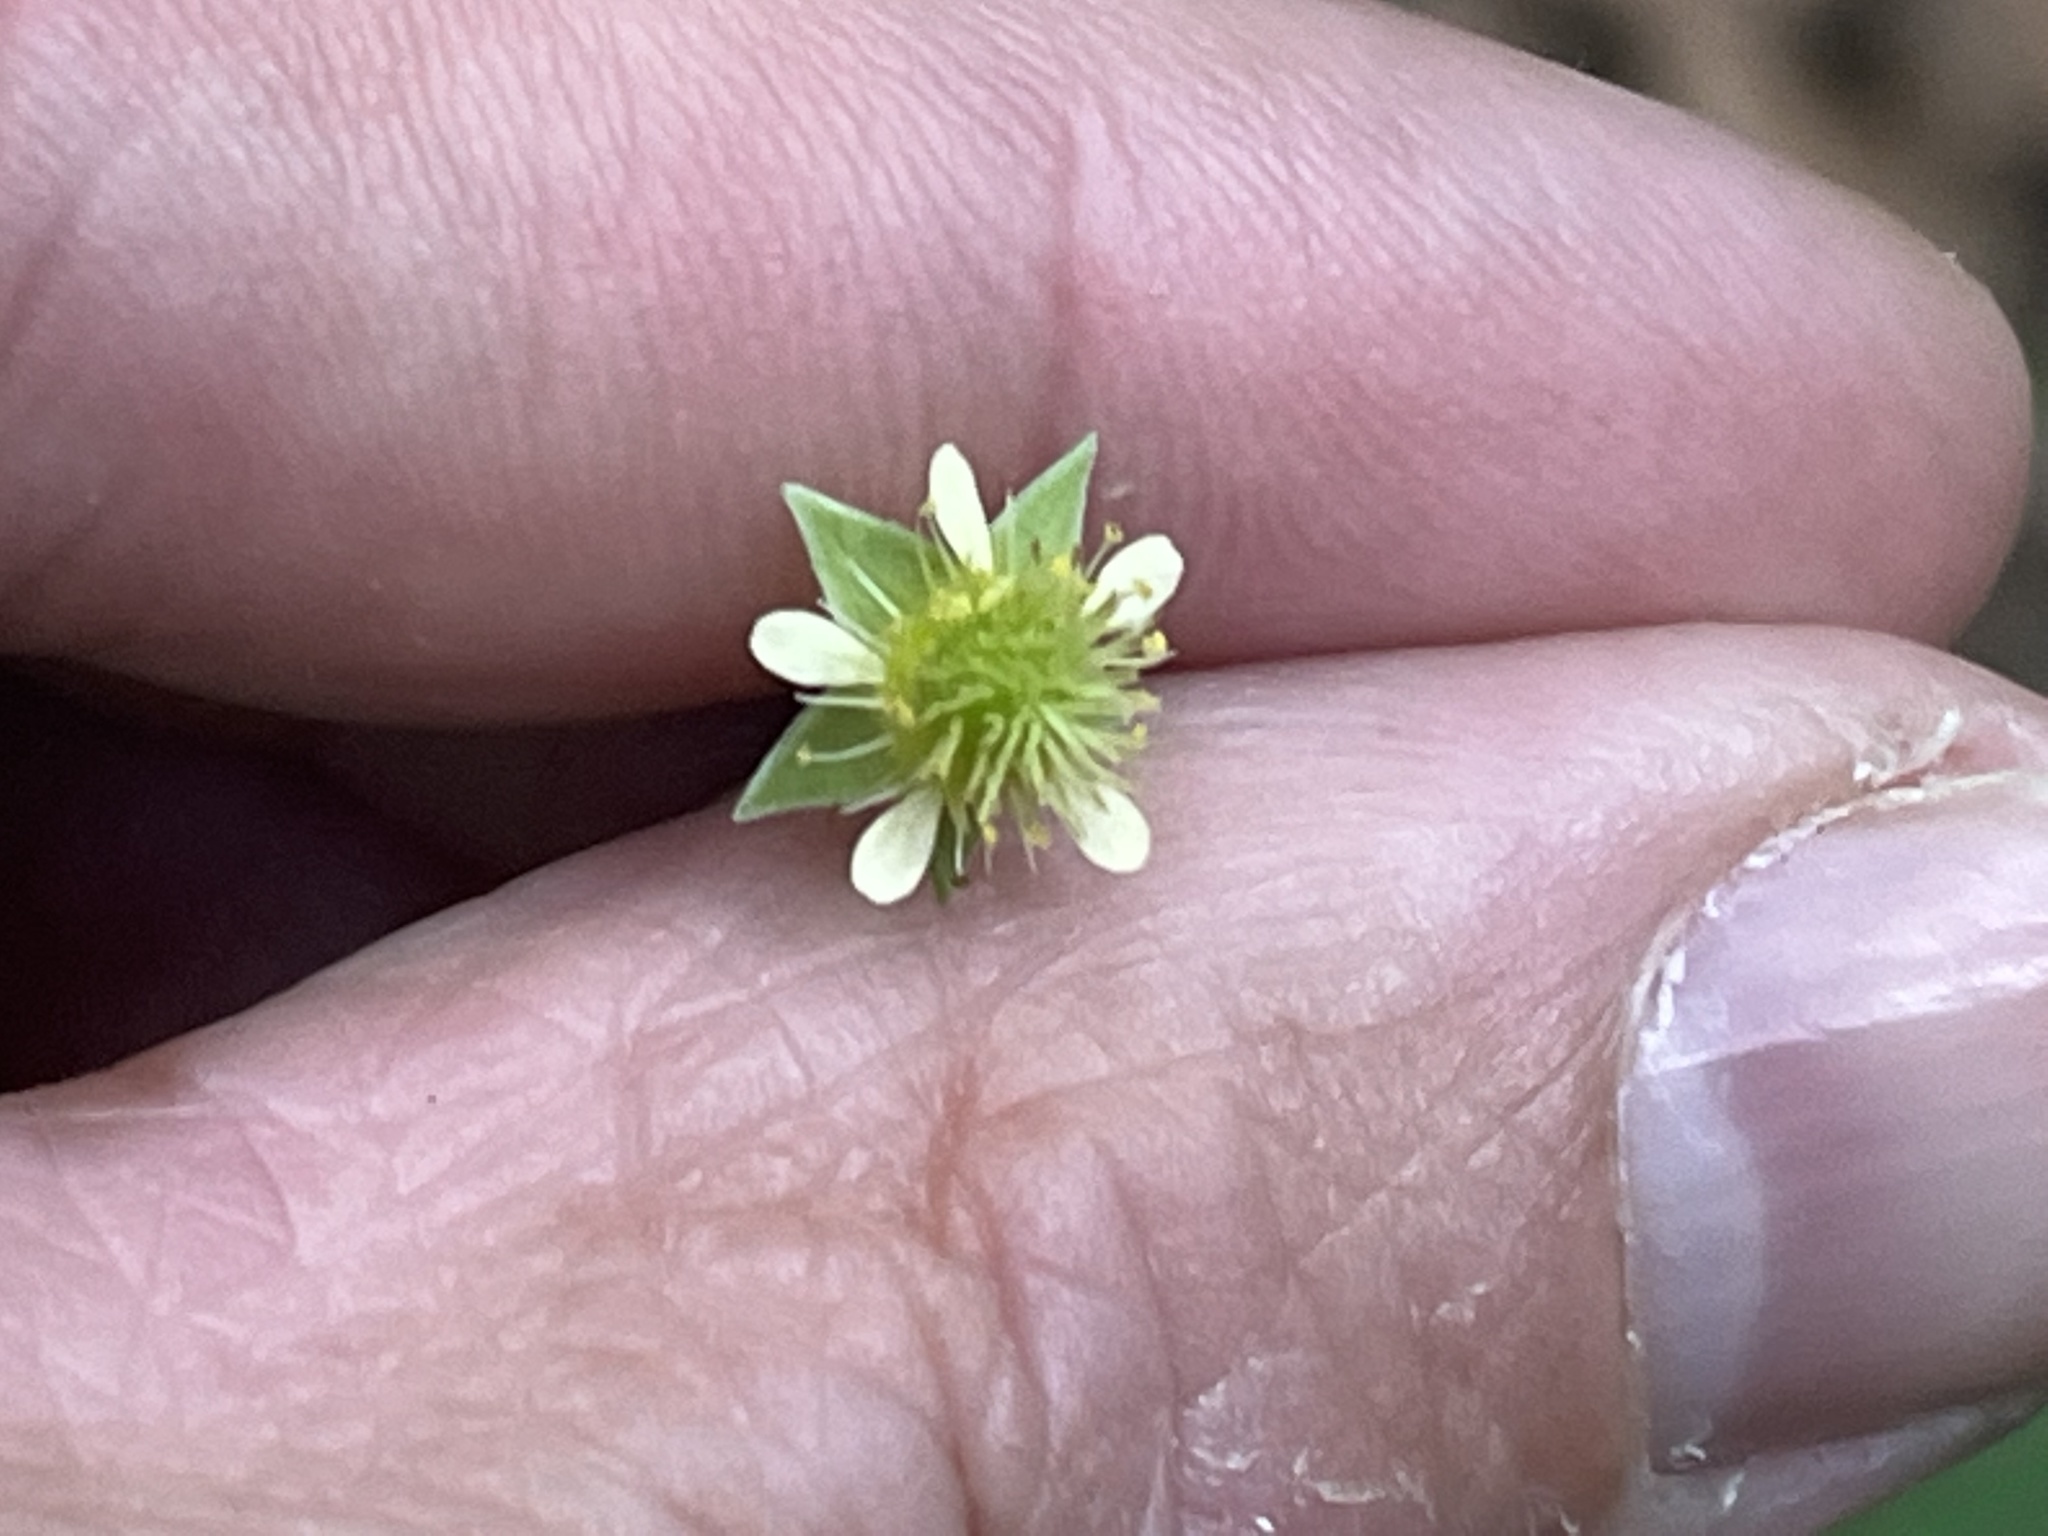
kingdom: Plantae
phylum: Tracheophyta
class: Magnoliopsida
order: Rosales
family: Rosaceae
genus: Geum
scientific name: Geum virginianum
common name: Cream avens
